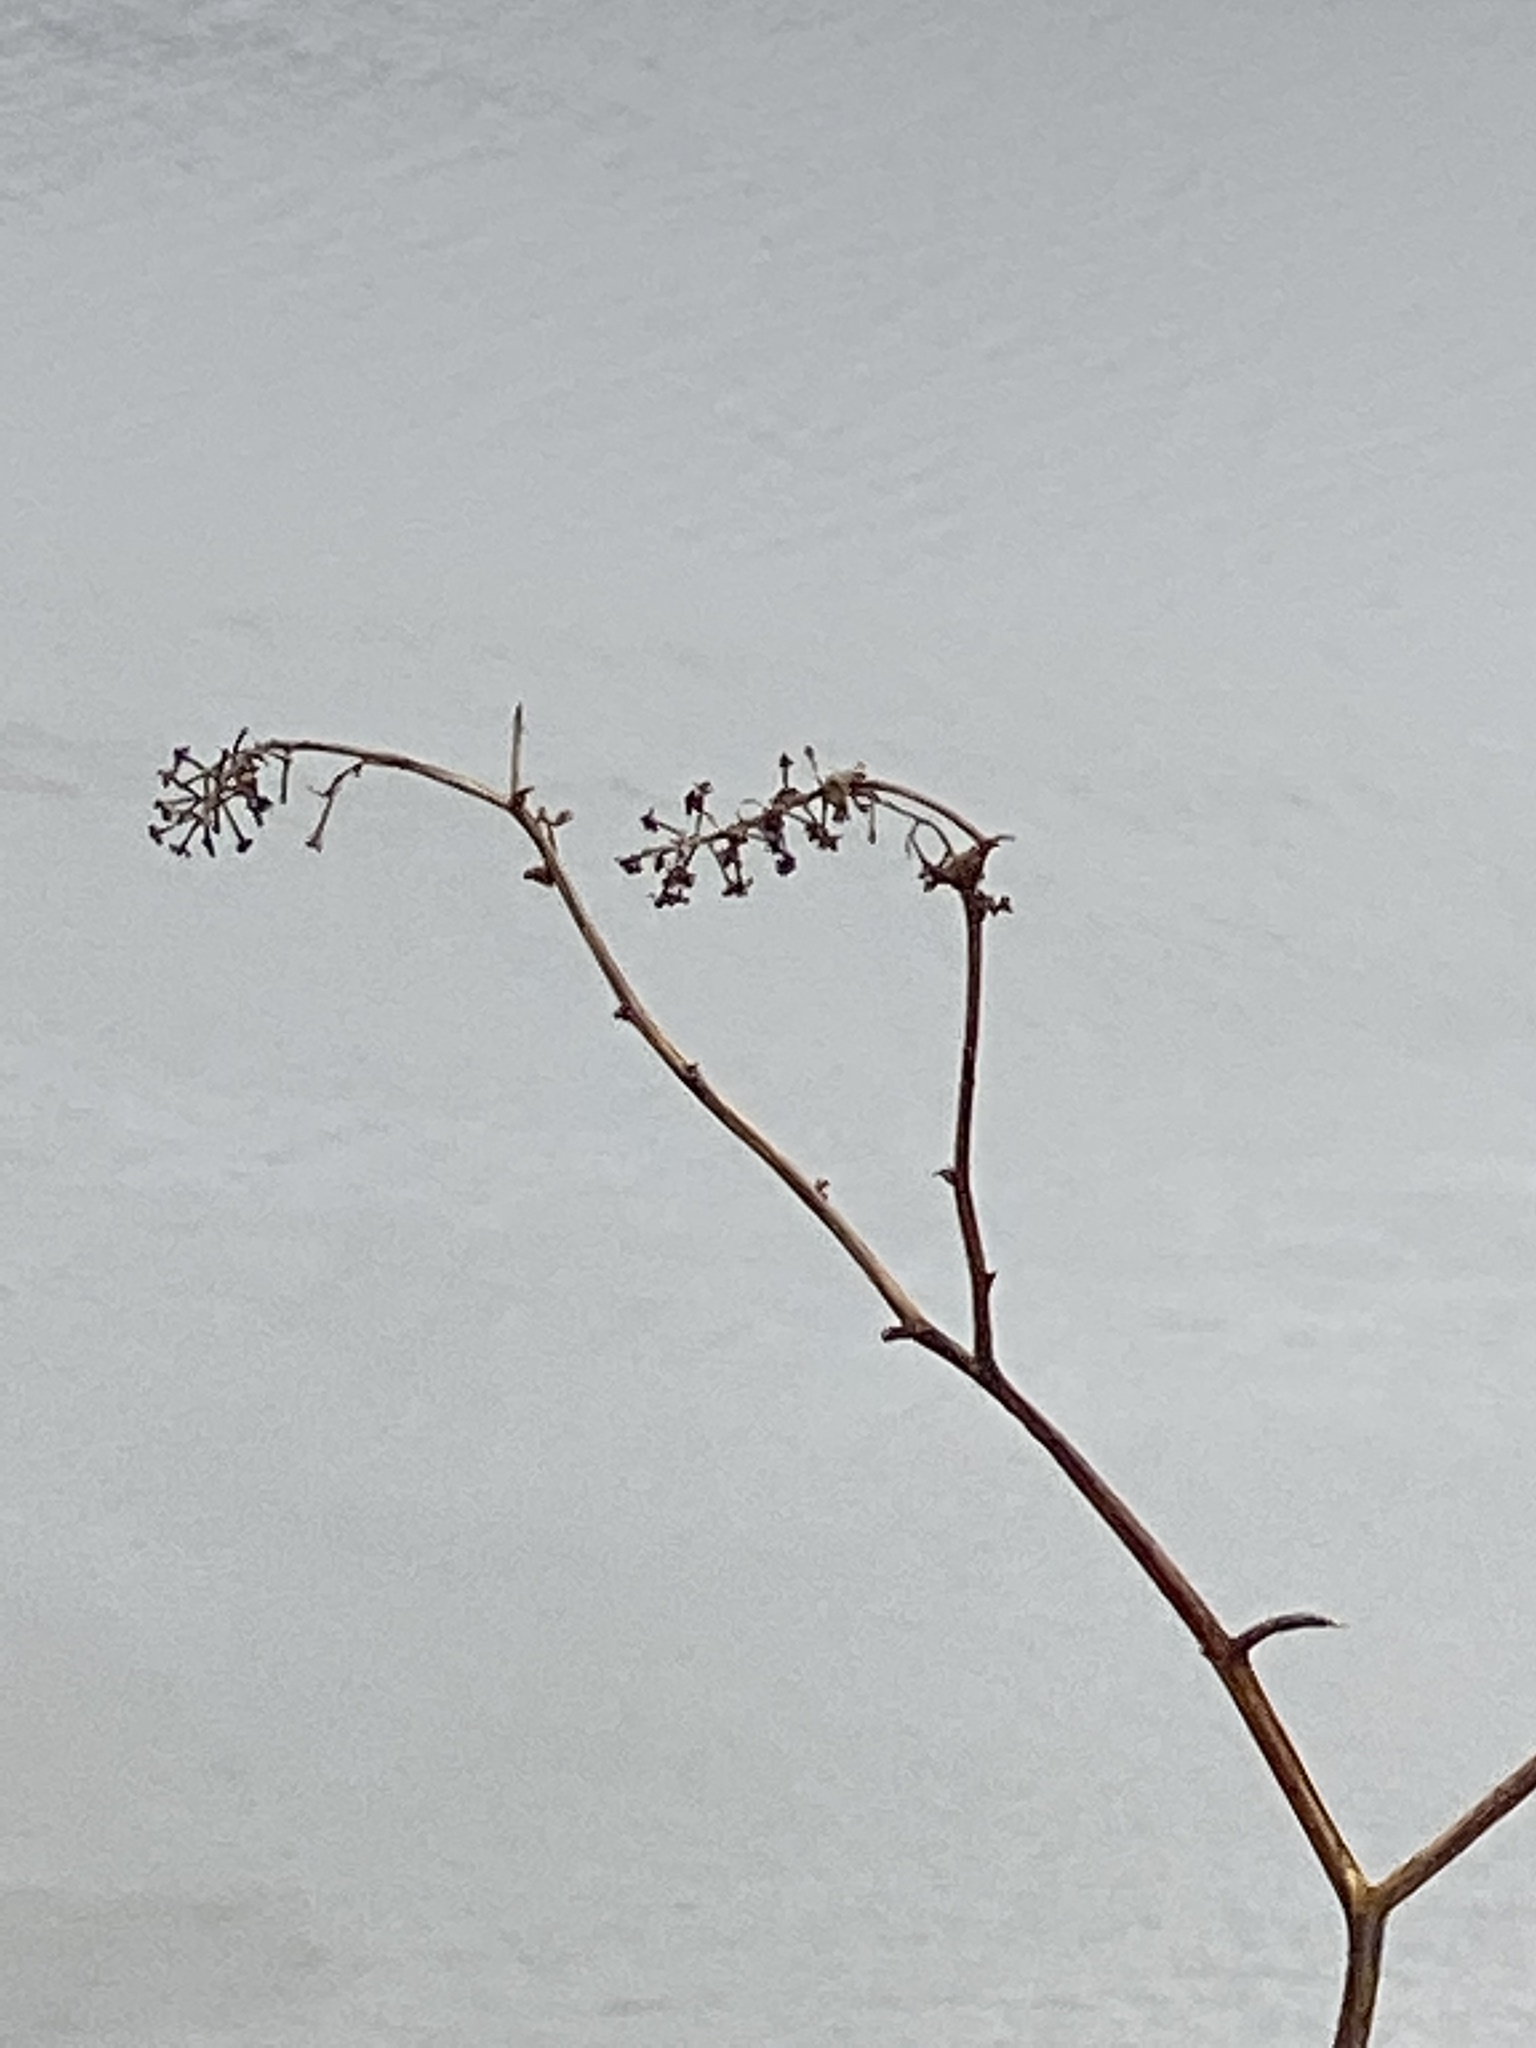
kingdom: Plantae
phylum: Tracheophyta
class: Magnoliopsida
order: Caryophyllales
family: Phytolaccaceae
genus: Phytolacca
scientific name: Phytolacca americana
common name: American pokeweed
